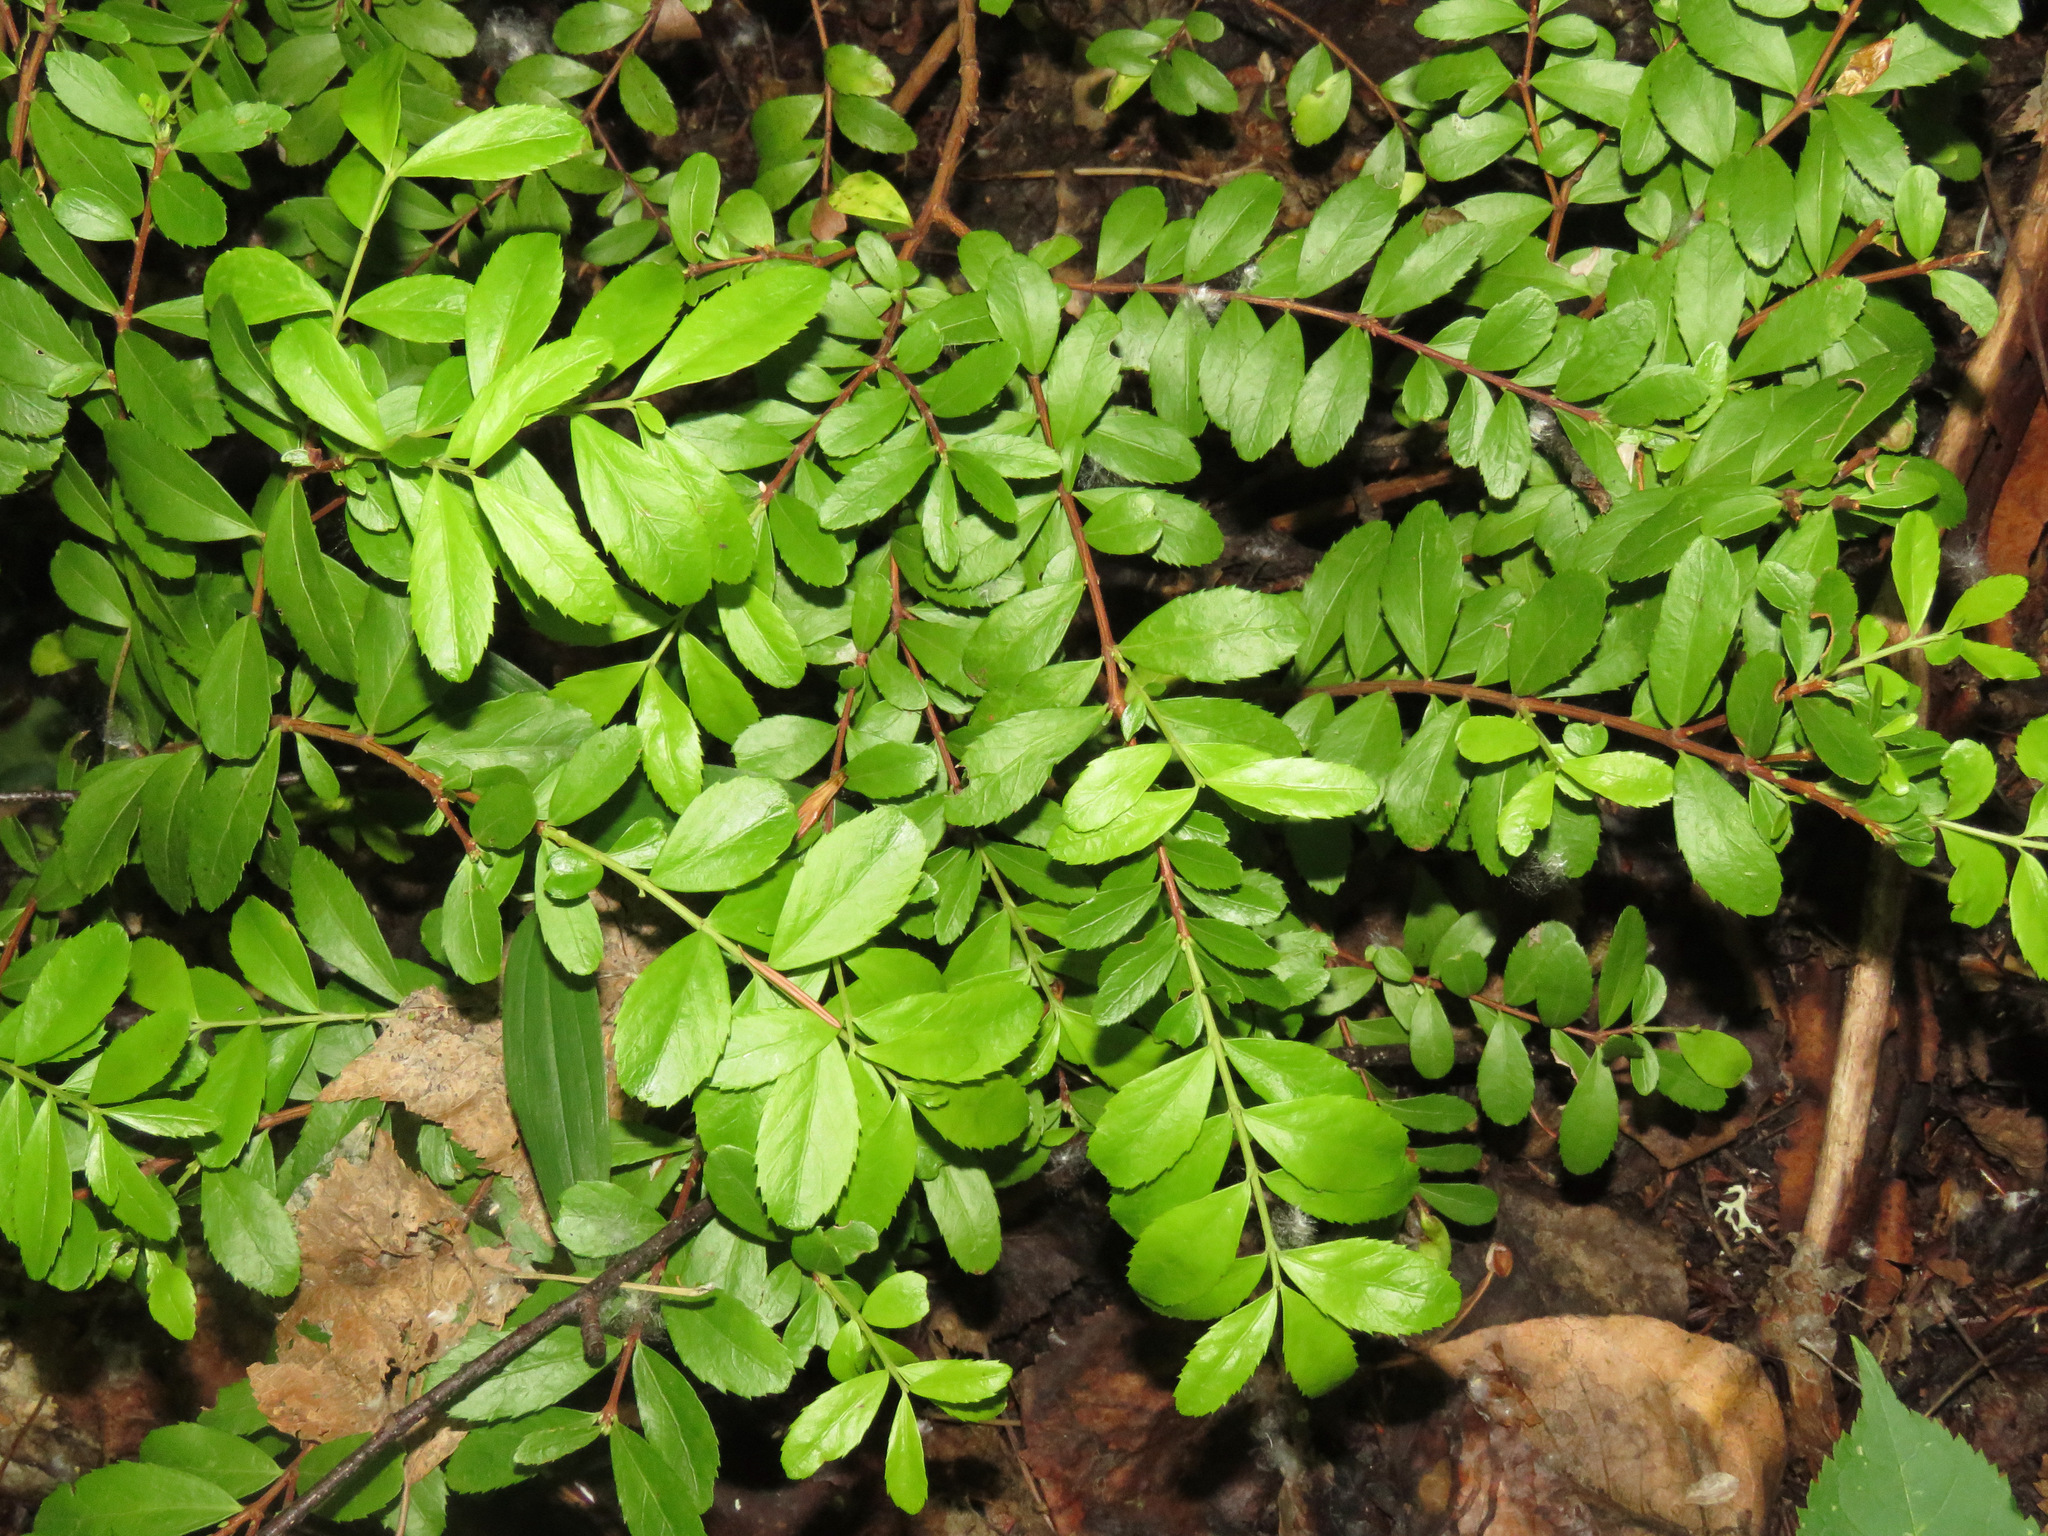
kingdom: Plantae
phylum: Tracheophyta
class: Magnoliopsida
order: Celastrales
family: Celastraceae
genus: Paxistima
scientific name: Paxistima myrsinites
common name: Mountain-lover
